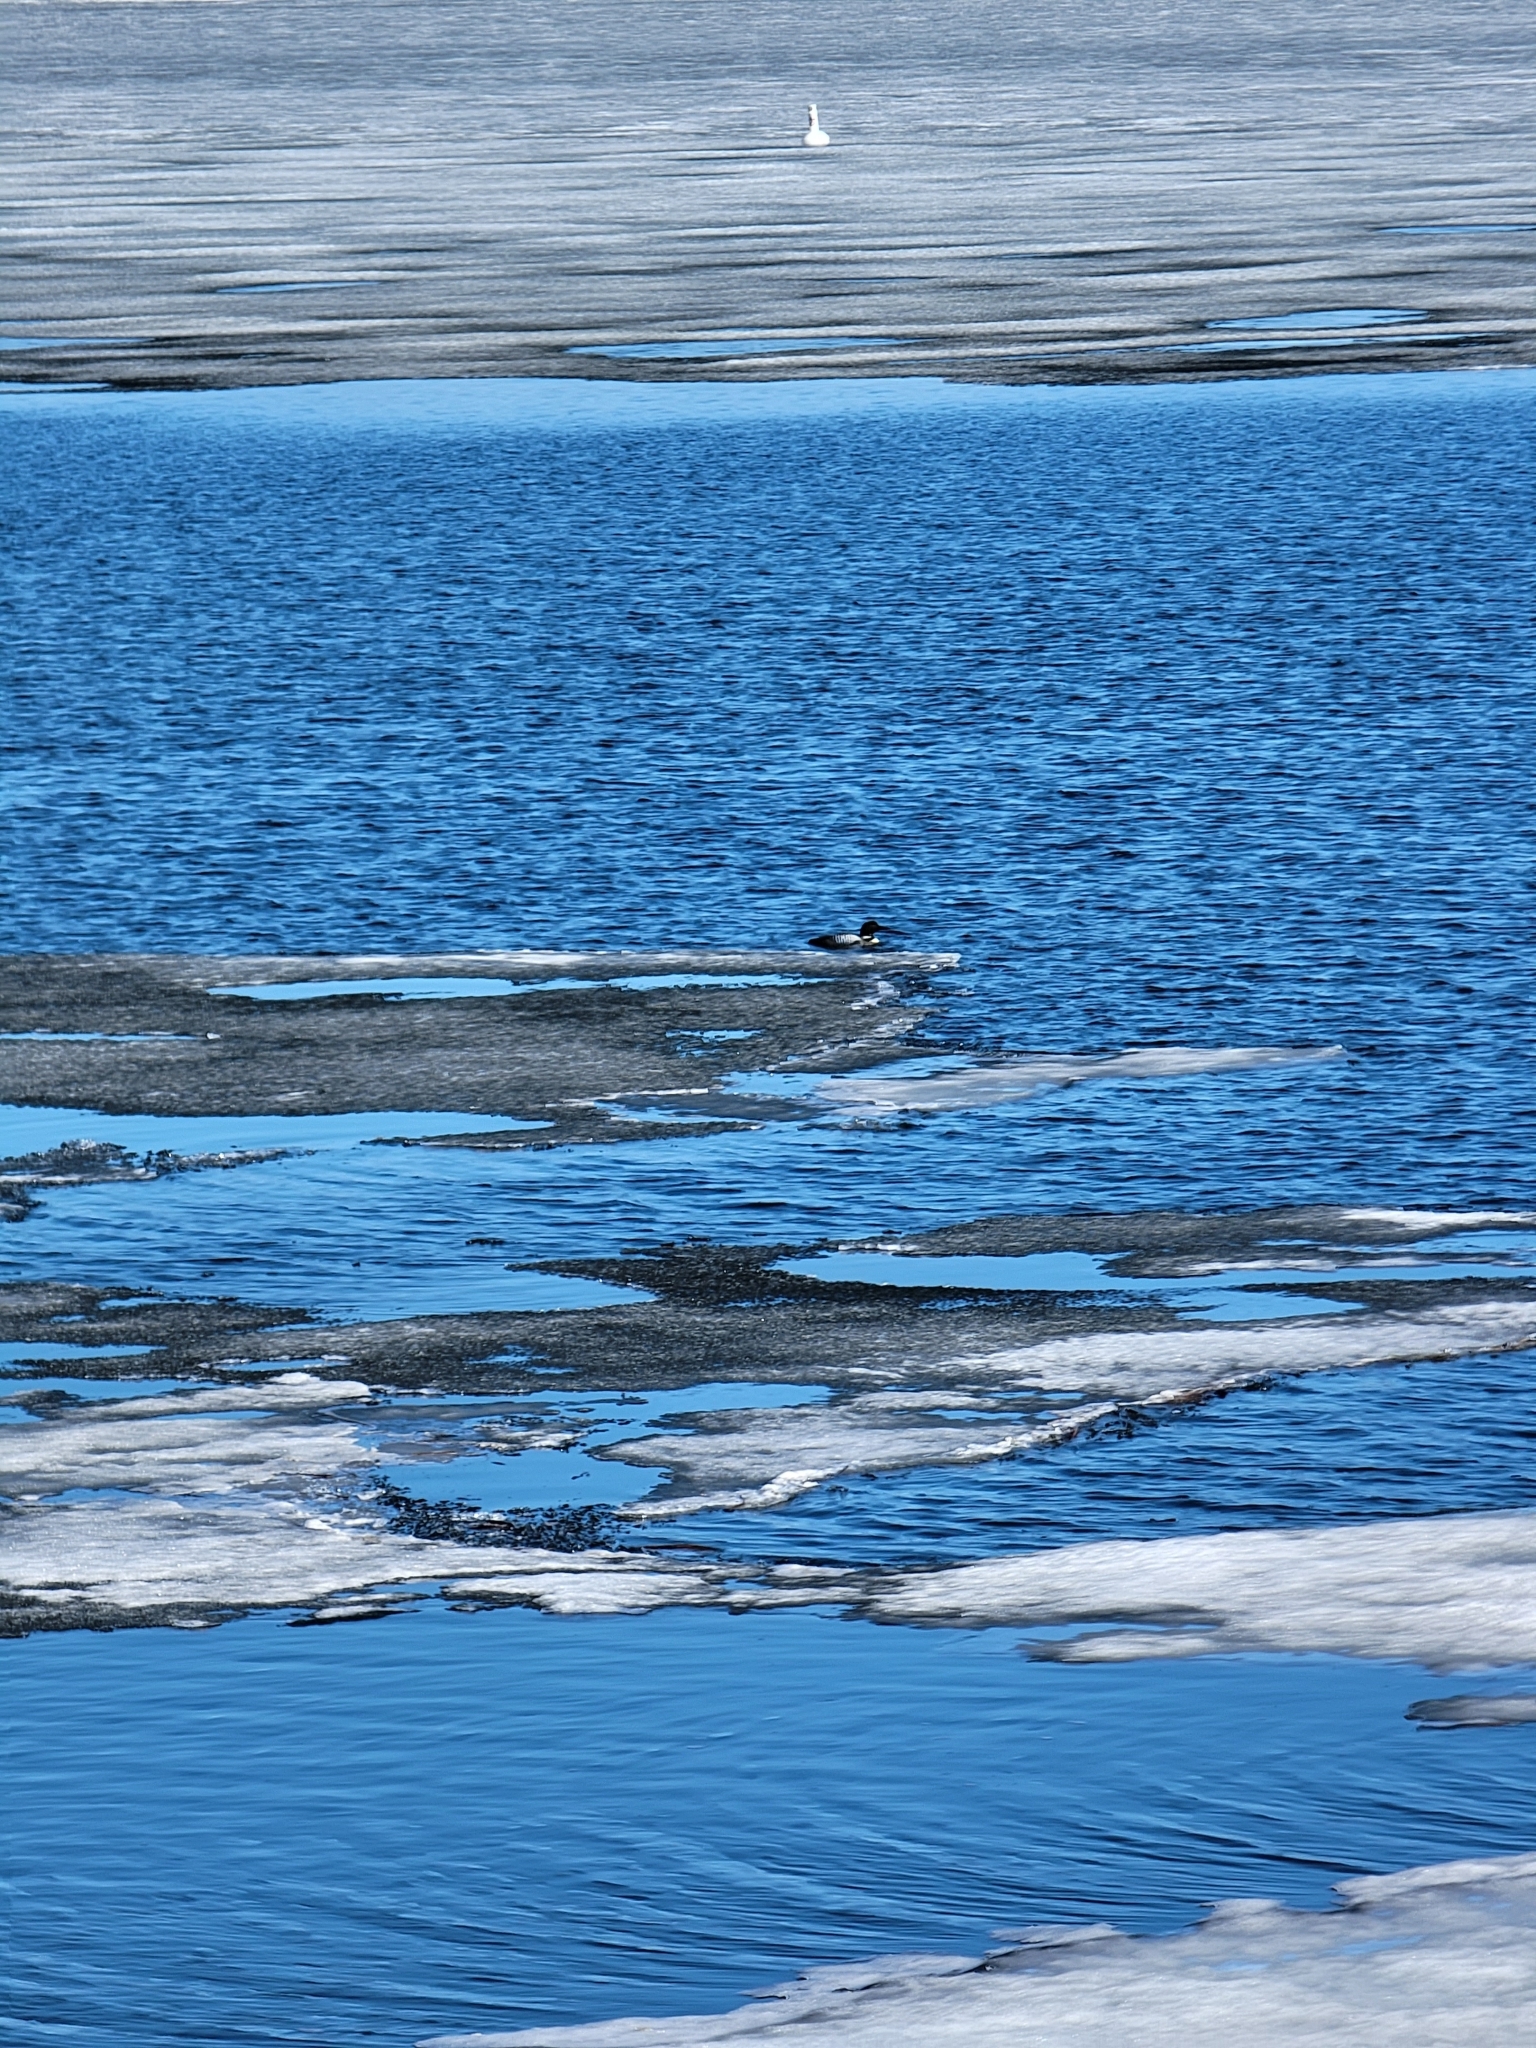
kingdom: Animalia
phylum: Chordata
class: Aves
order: Gaviiformes
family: Gaviidae
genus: Gavia
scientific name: Gavia immer
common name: Common loon
